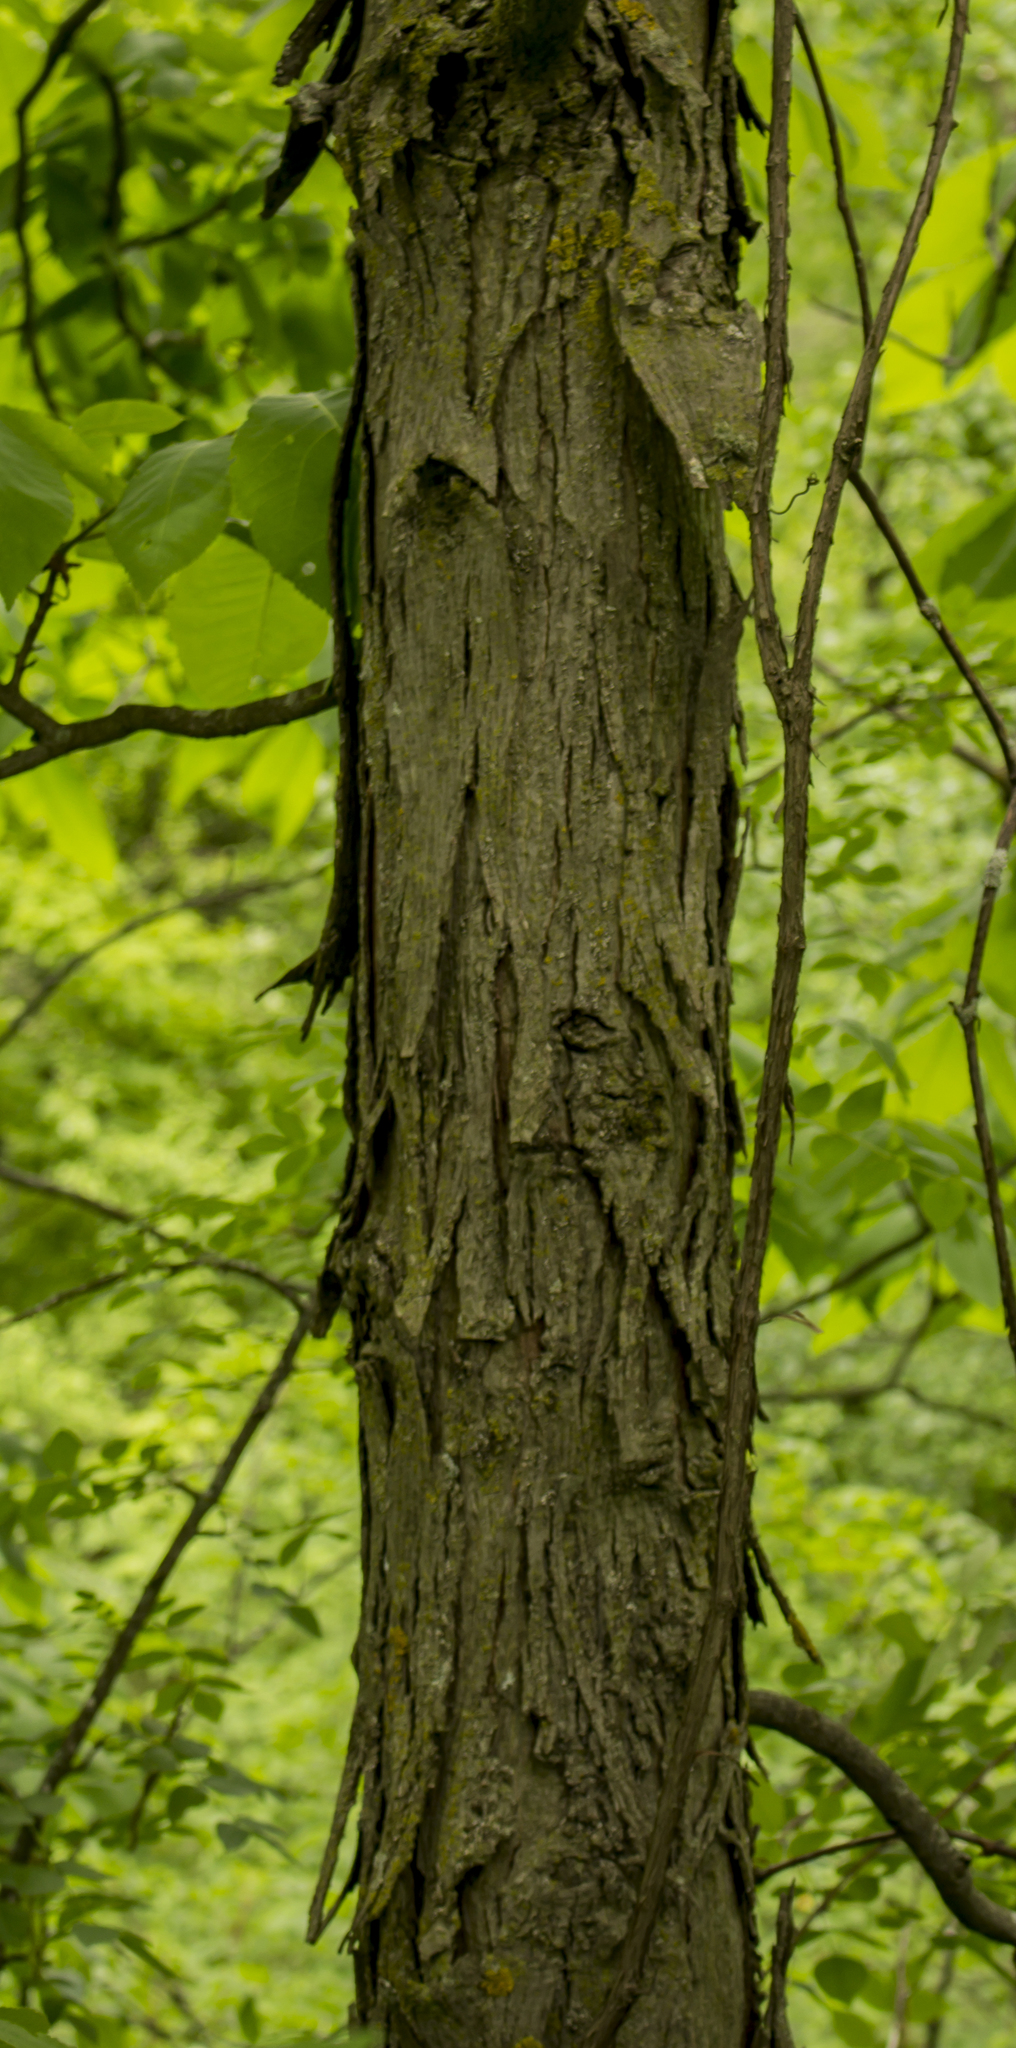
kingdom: Plantae
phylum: Tracheophyta
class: Magnoliopsida
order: Fagales
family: Juglandaceae
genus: Carya
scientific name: Carya ovata
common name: Shagbark hickory
